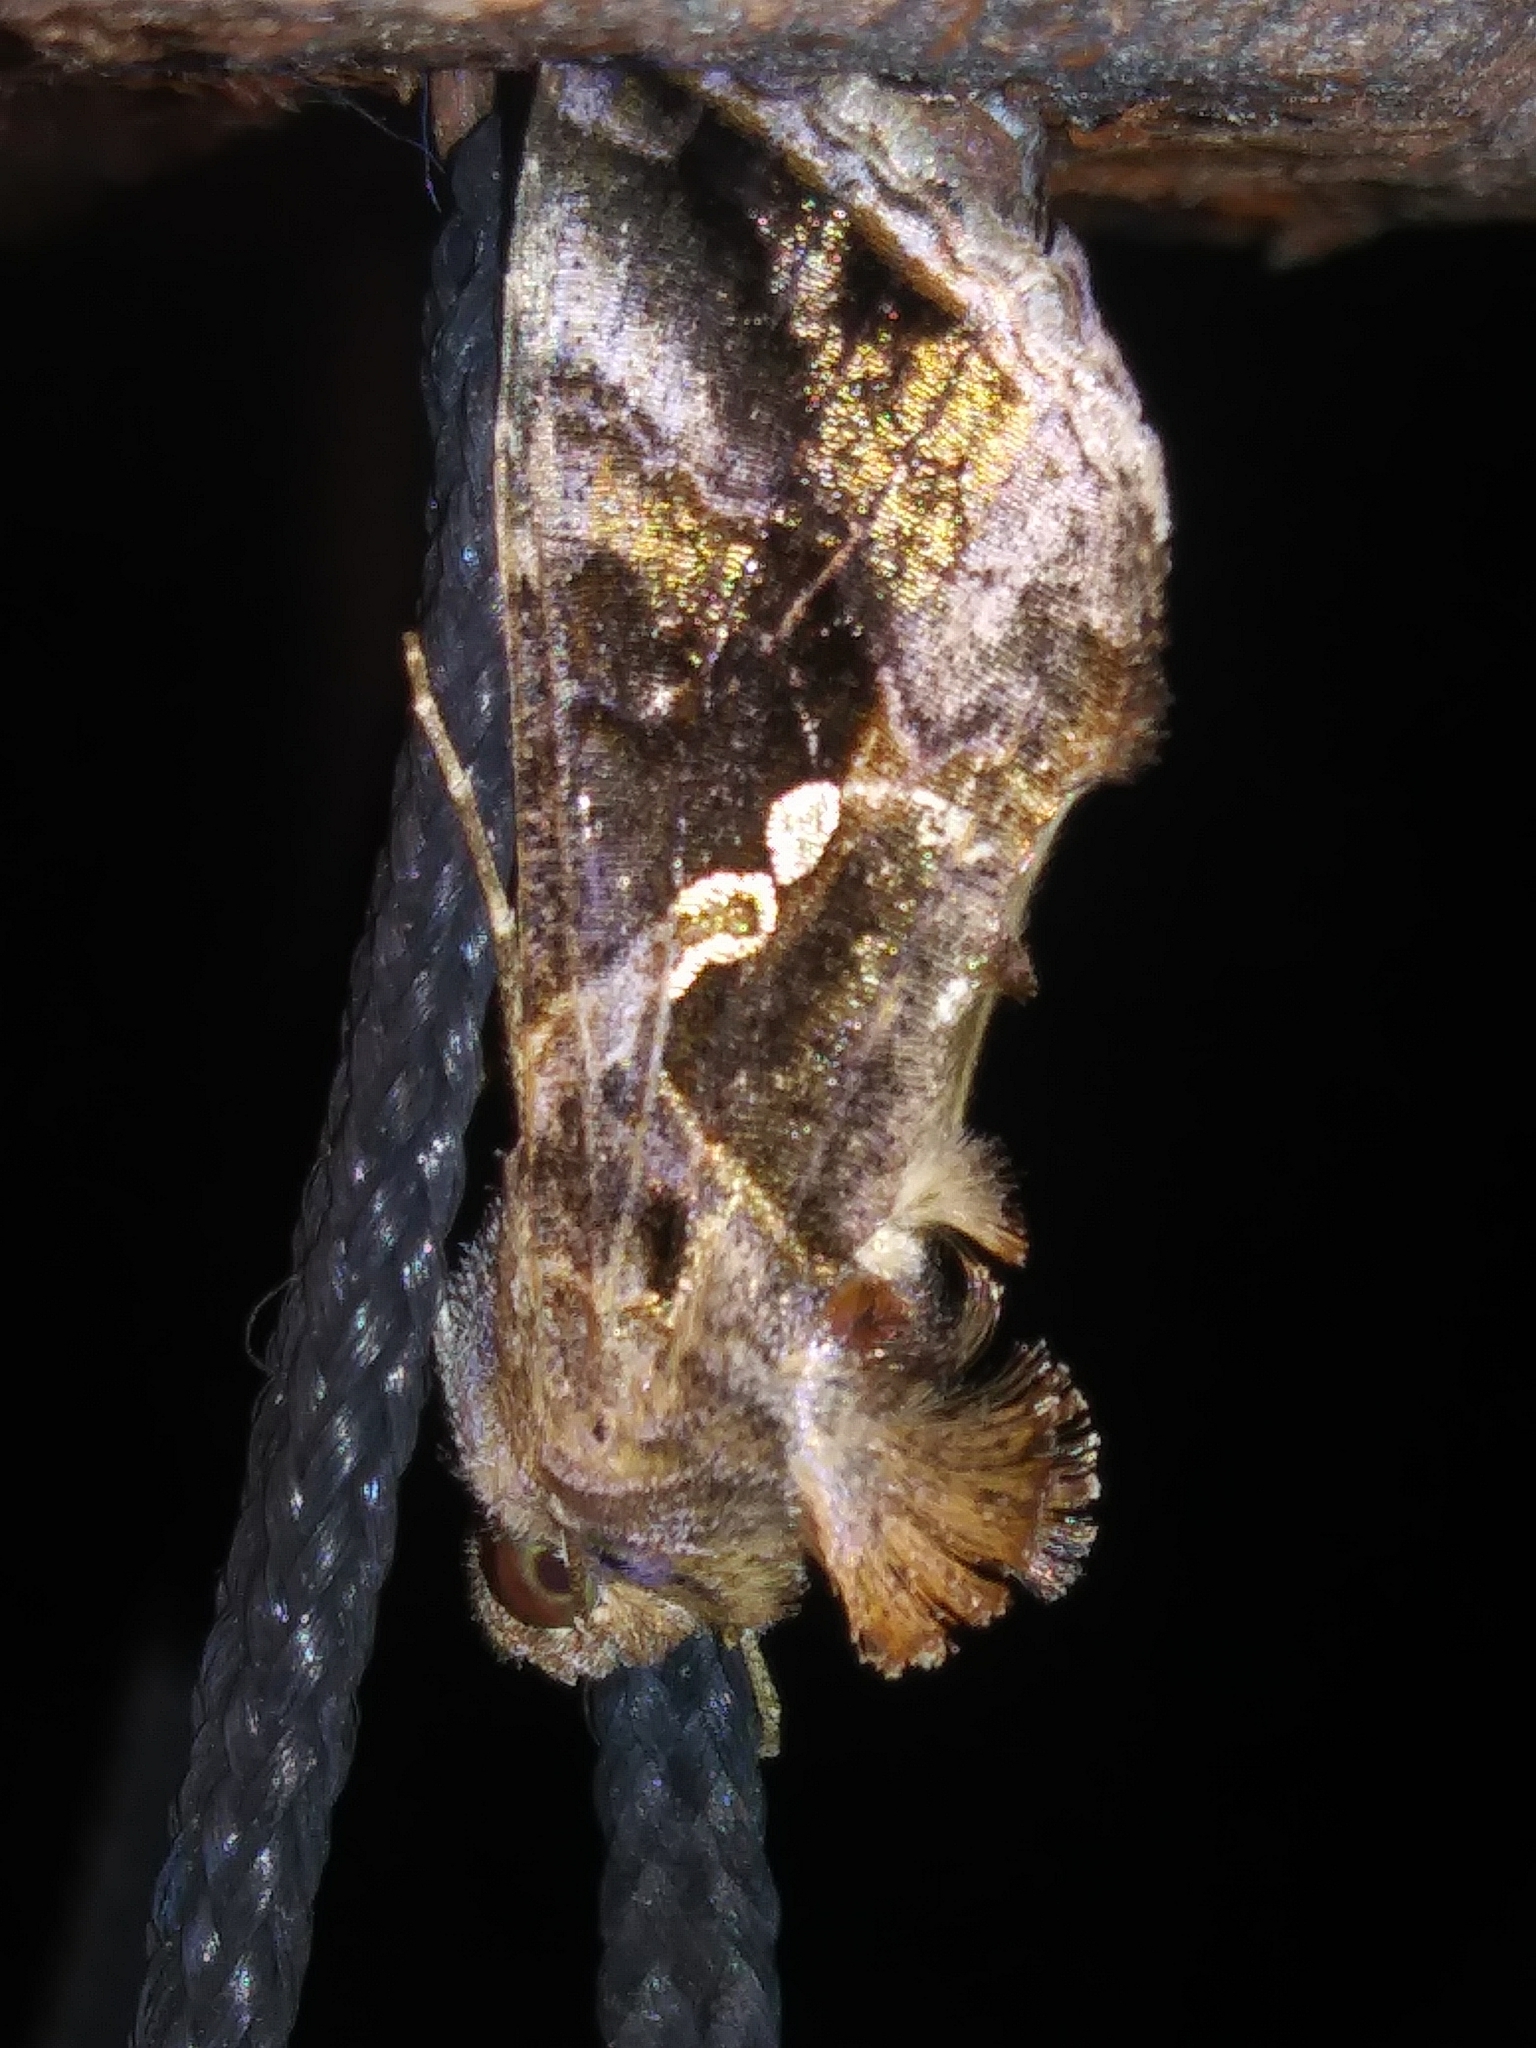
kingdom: Animalia
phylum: Arthropoda
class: Insecta
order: Lepidoptera
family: Noctuidae
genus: Chrysodeixis
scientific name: Chrysodeixis includens
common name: Cutworm moth
